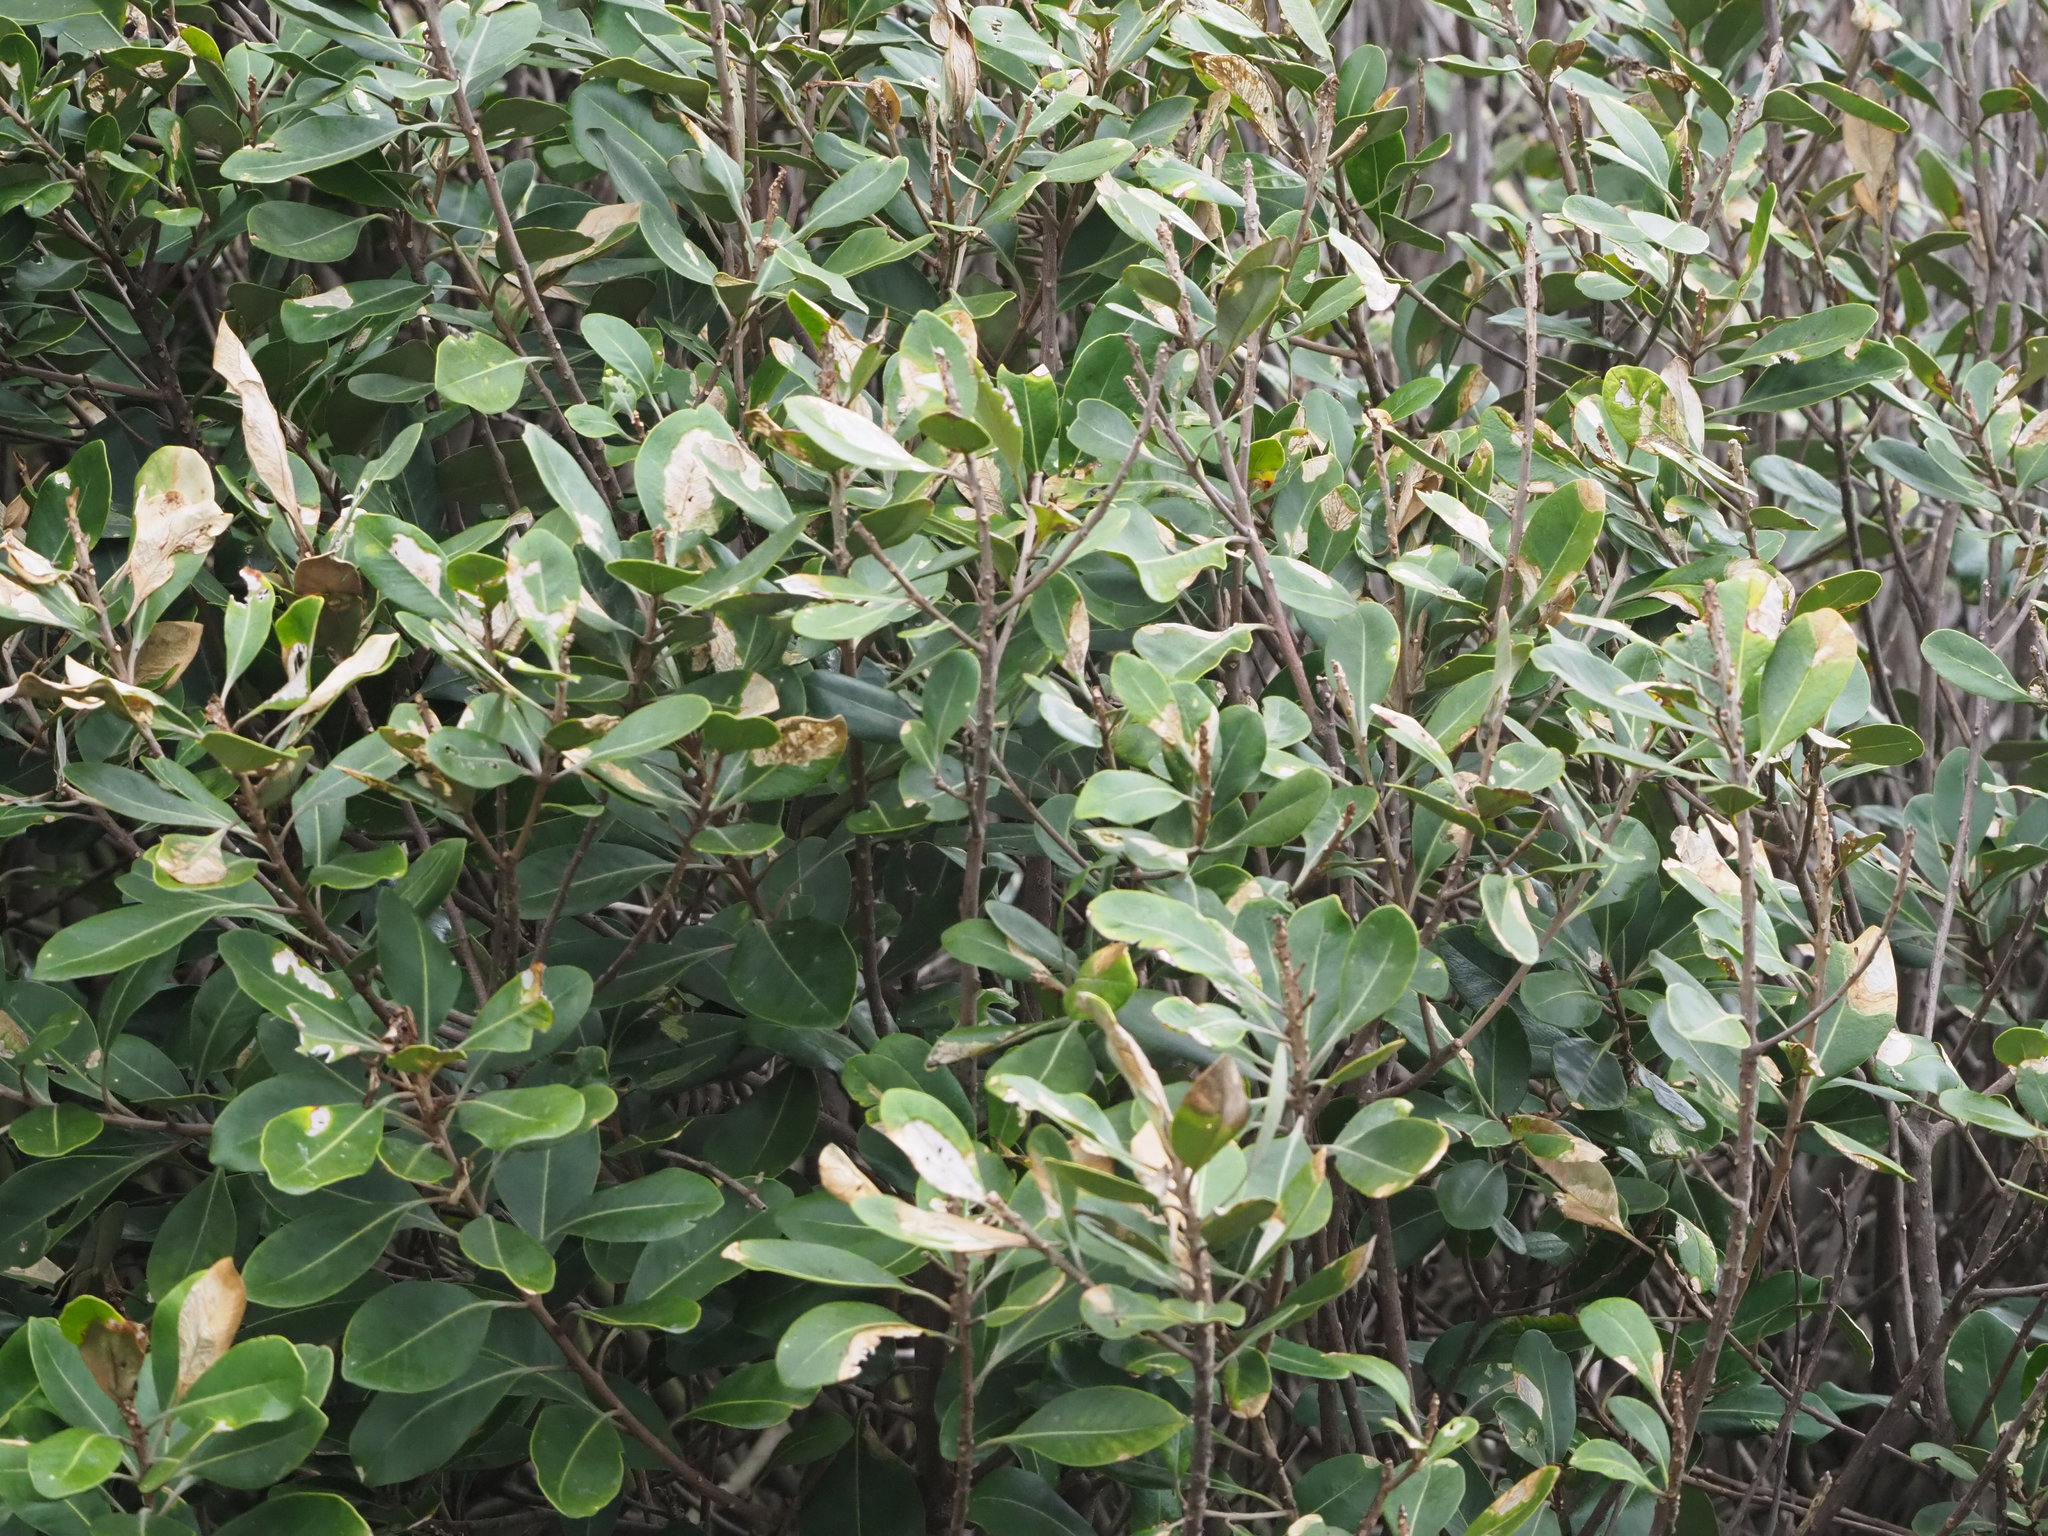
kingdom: Plantae
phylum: Tracheophyta
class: Magnoliopsida
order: Sapindales
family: Meliaceae
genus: Aglaia
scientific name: Aglaia elaeagnoidea
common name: Droopyleaf
